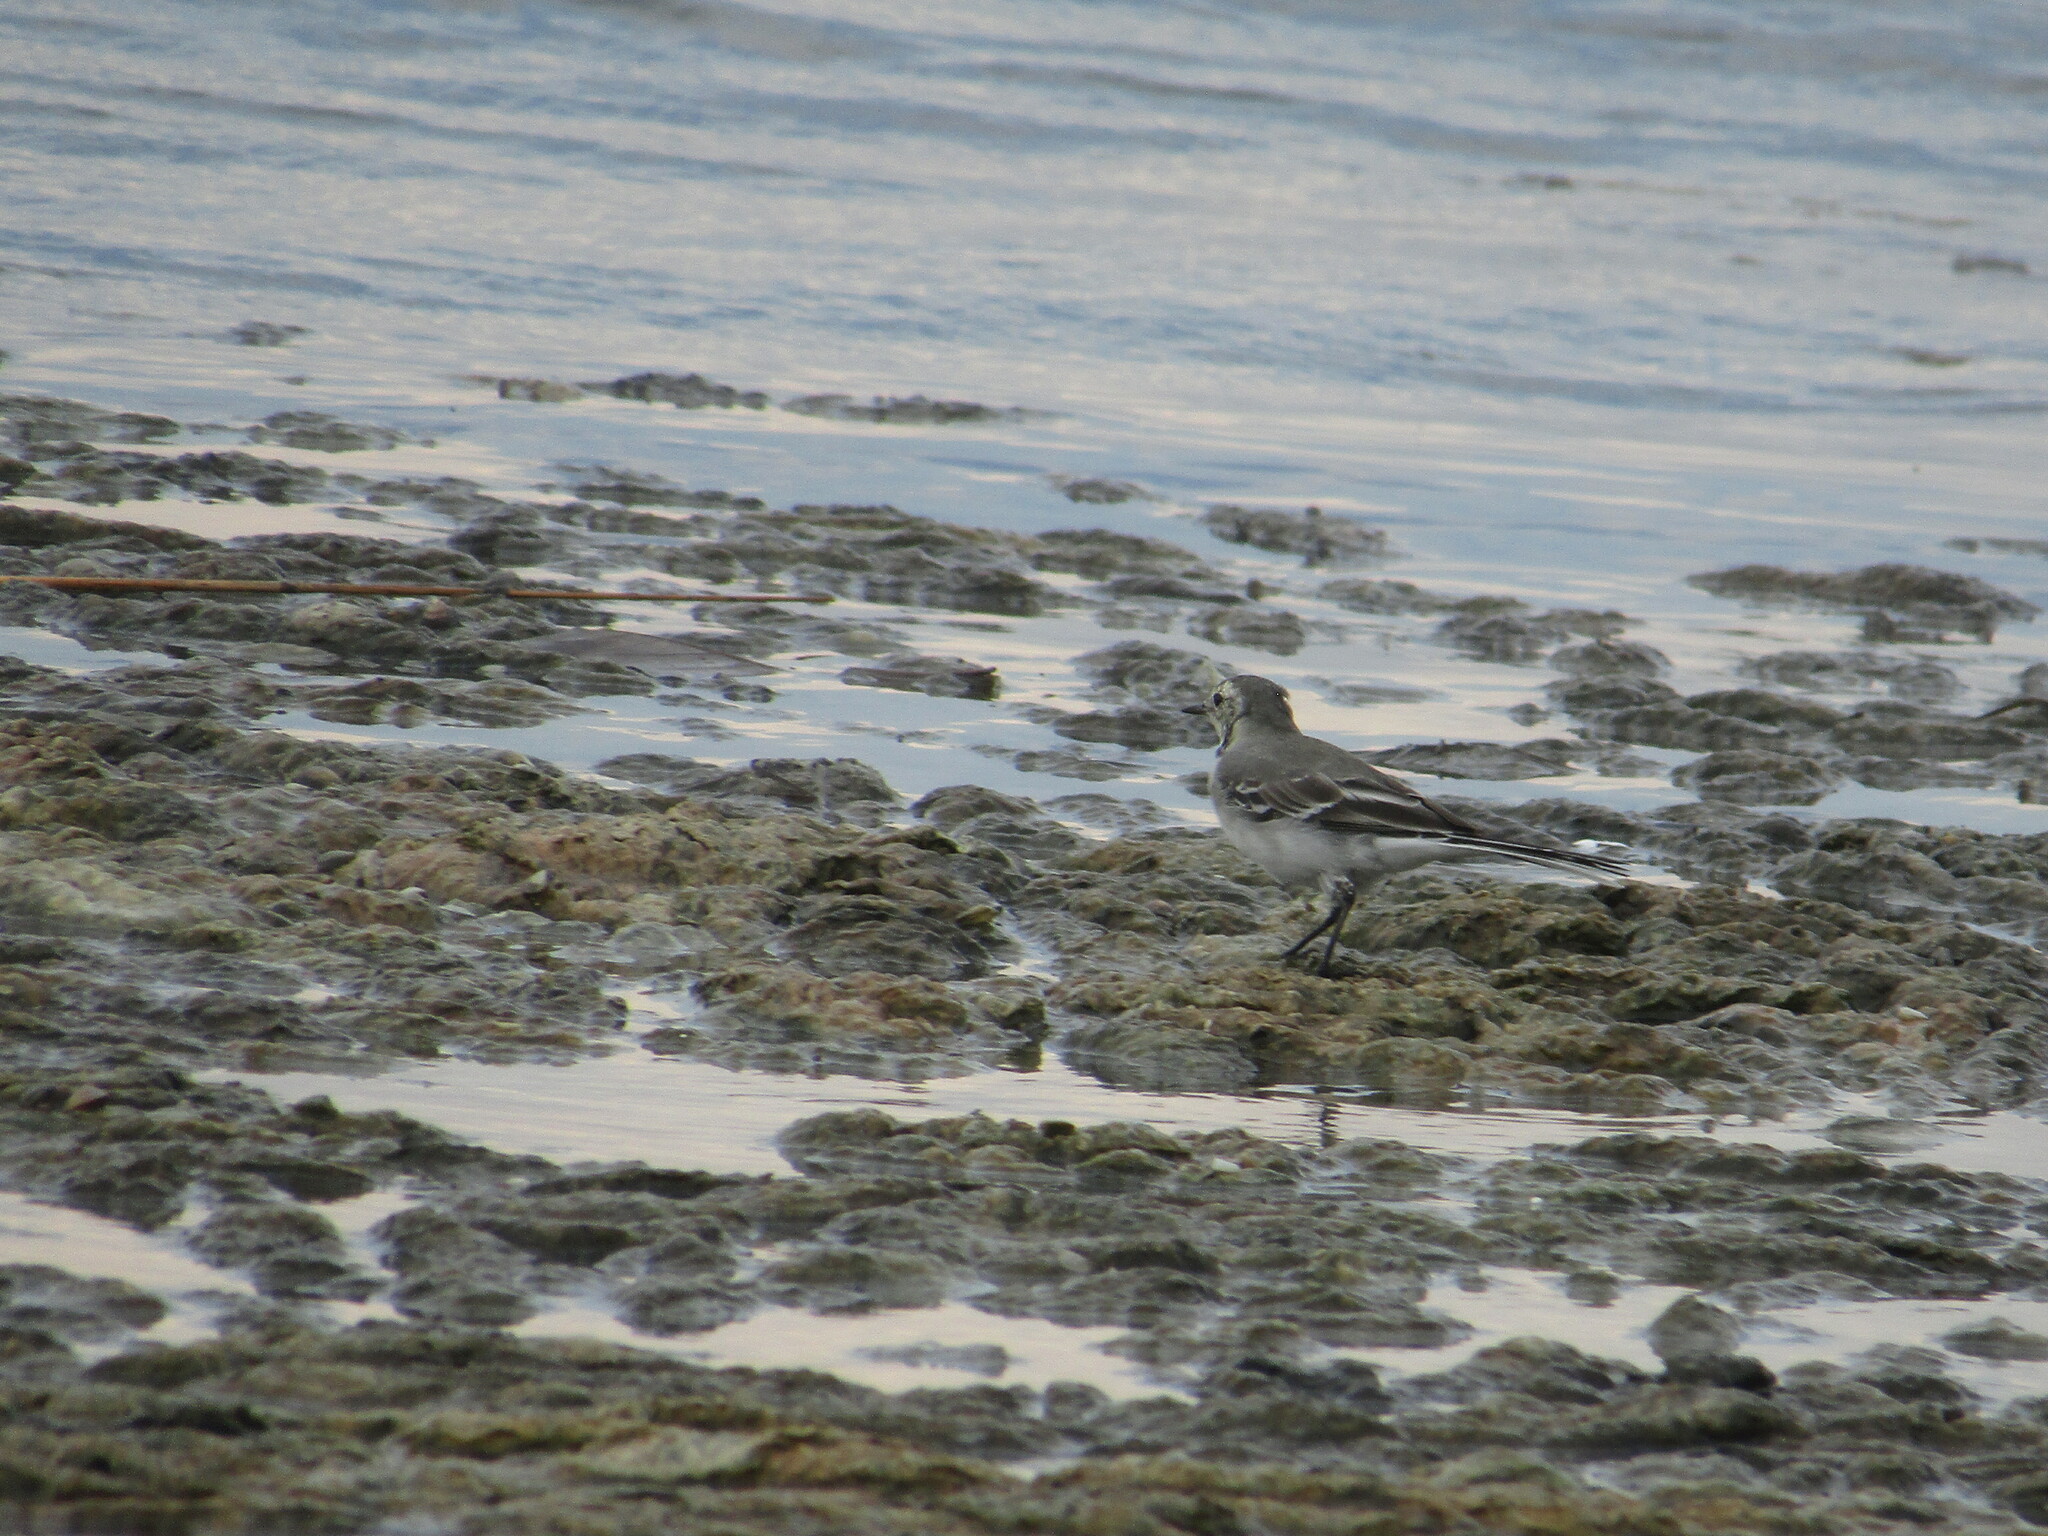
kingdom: Animalia
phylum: Chordata
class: Aves
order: Passeriformes
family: Motacillidae
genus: Motacilla
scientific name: Motacilla alba
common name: White wagtail
